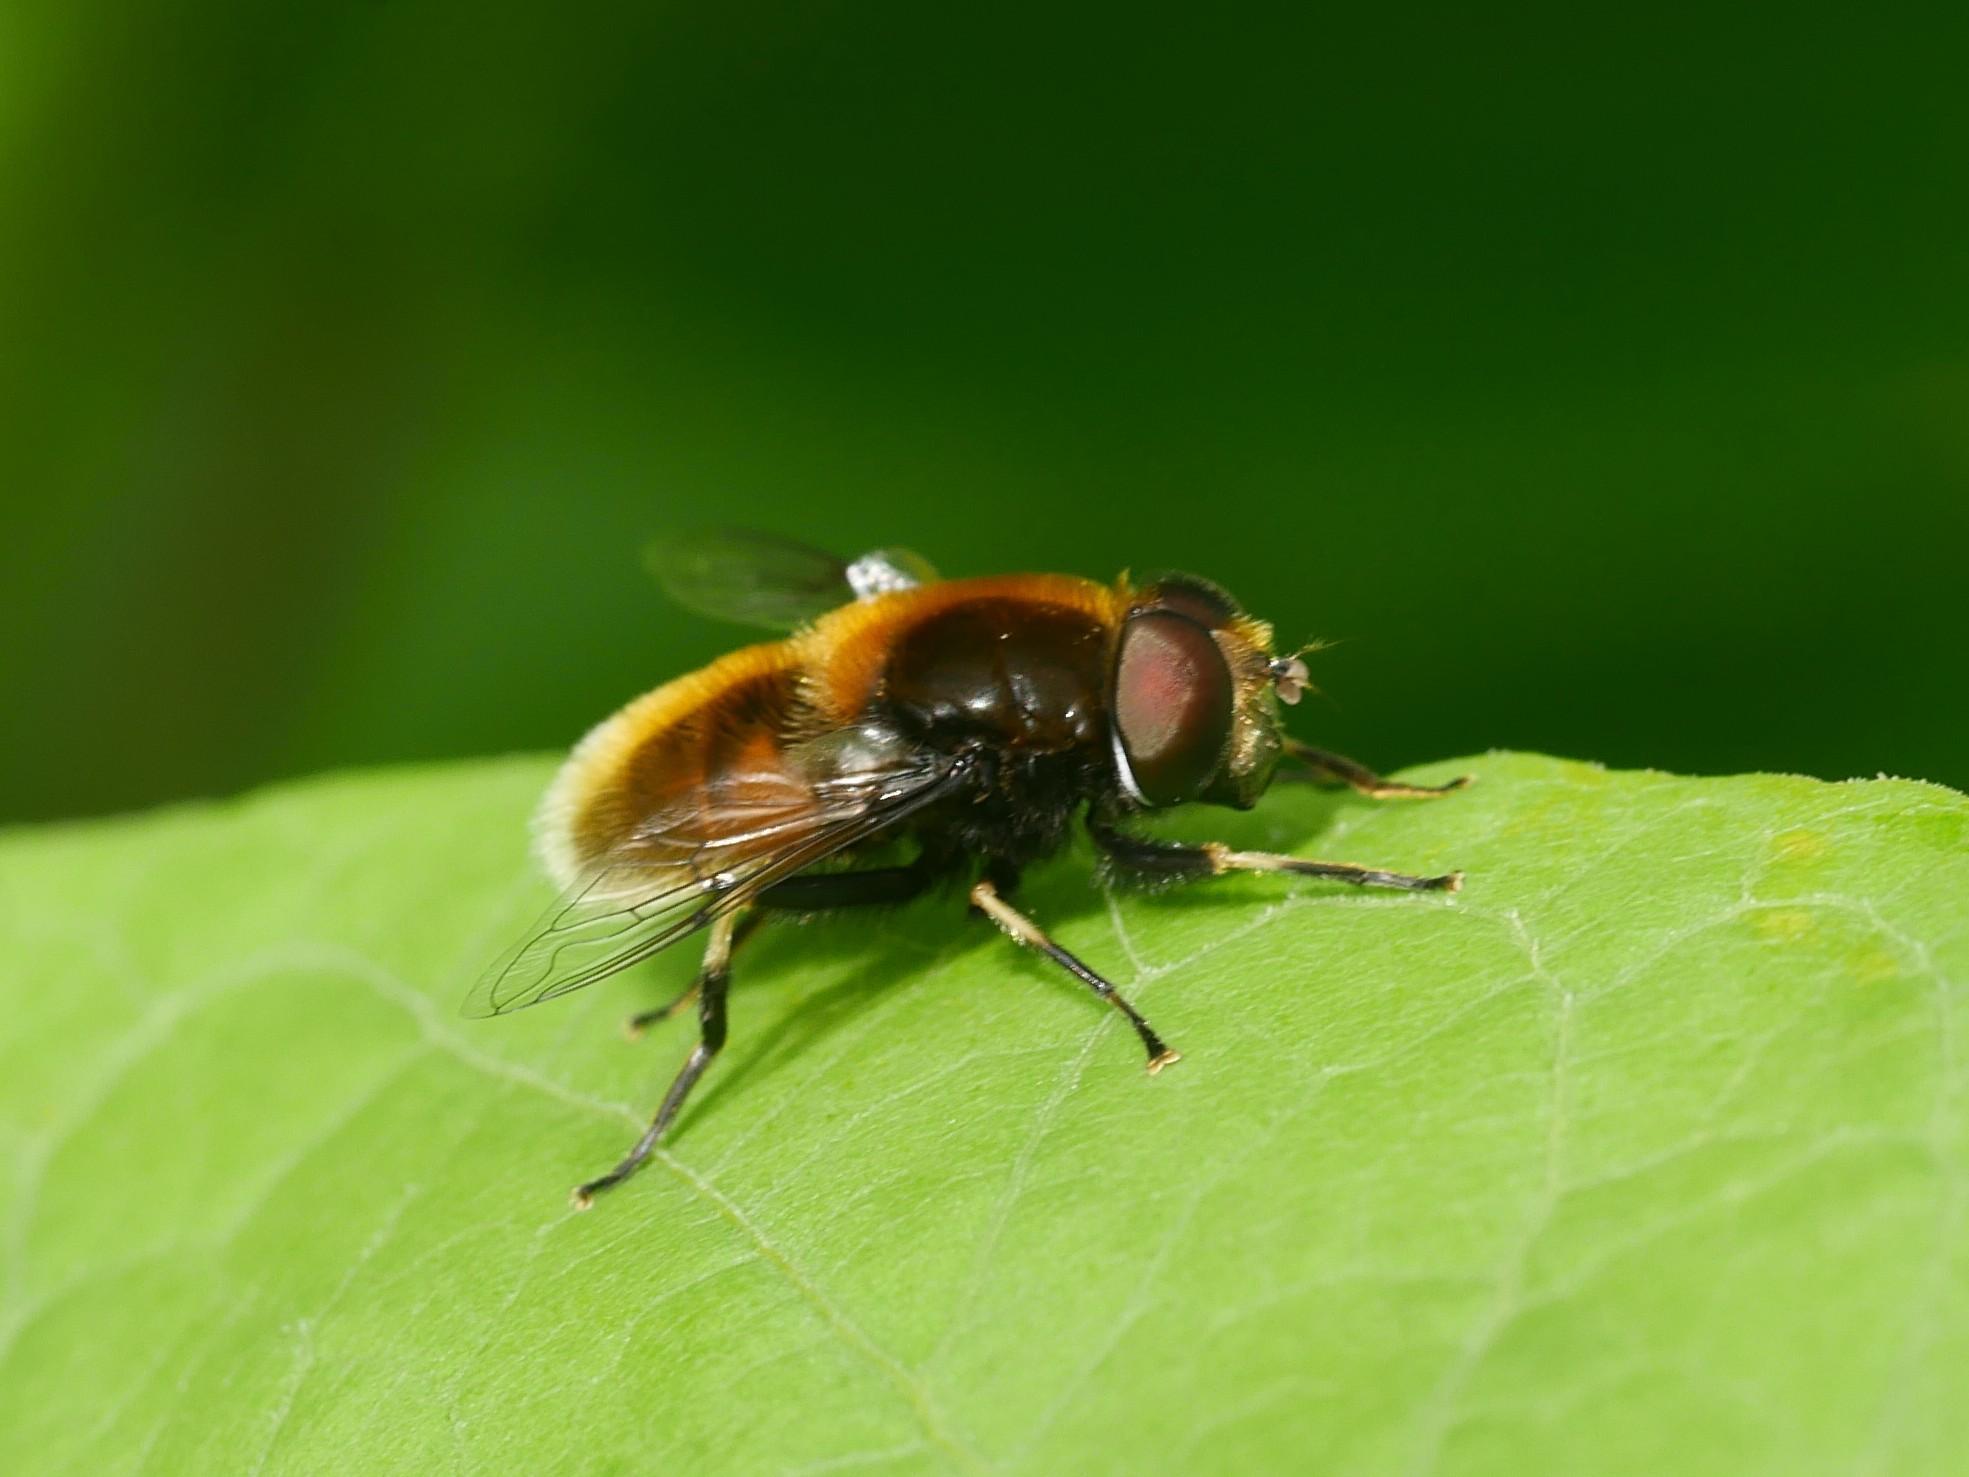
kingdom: Animalia
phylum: Arthropoda
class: Insecta
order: Diptera
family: Syrphidae
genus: Eristalis
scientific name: Eristalis intricaria
